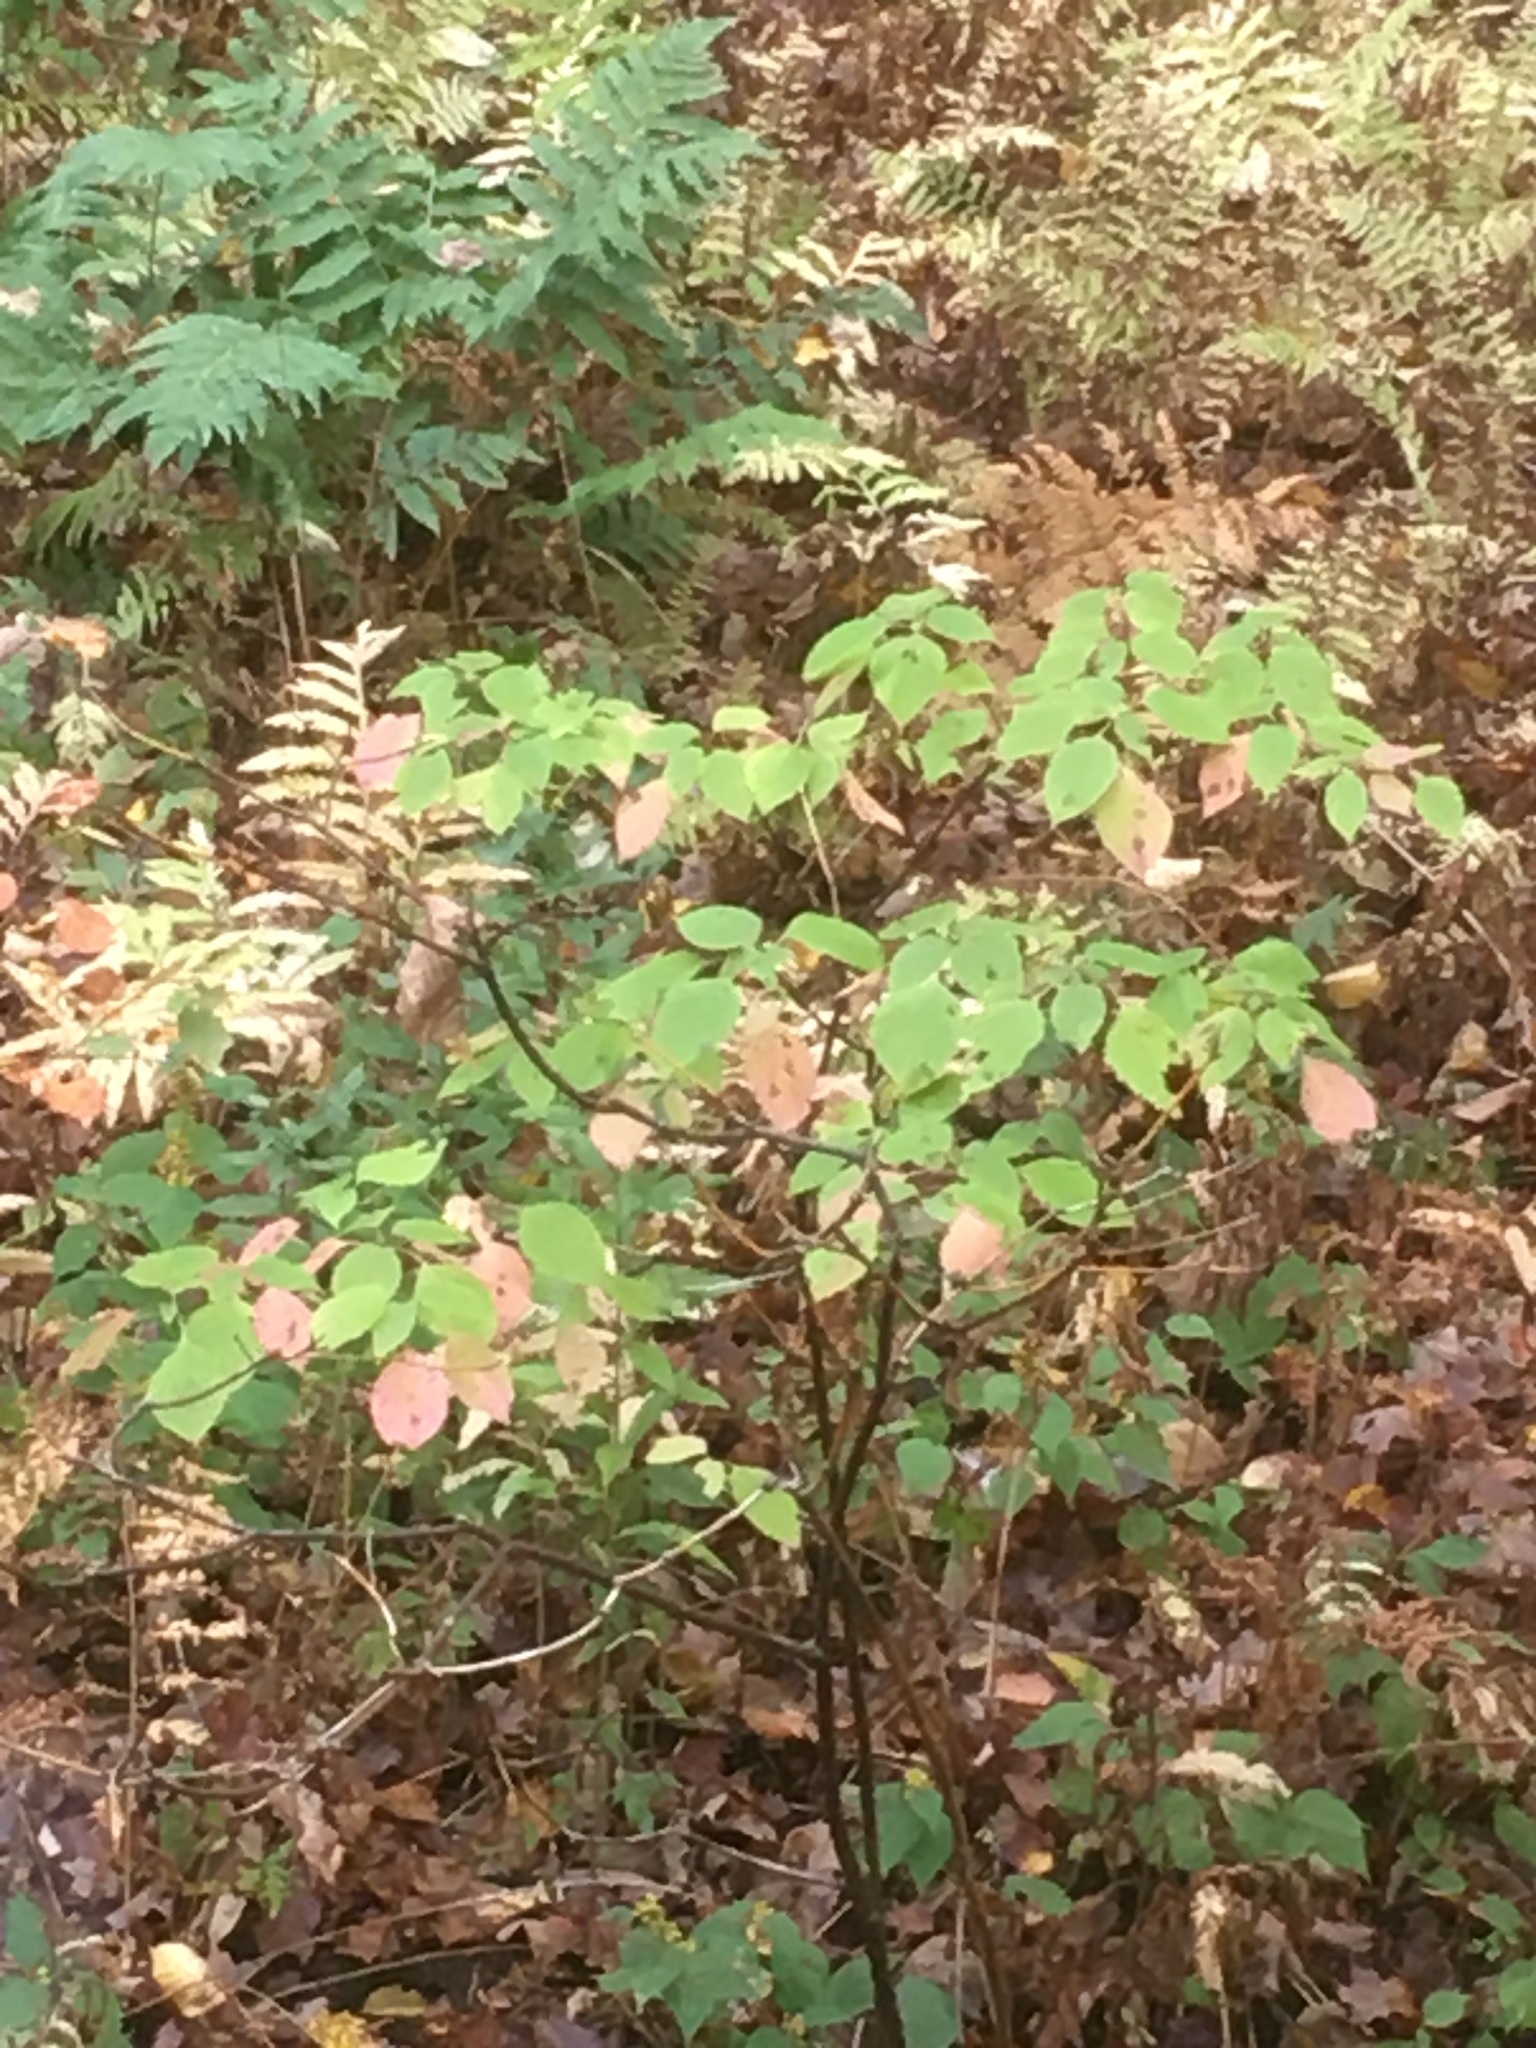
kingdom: Plantae
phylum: Tracheophyta
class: Magnoliopsida
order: Cornales
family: Cornaceae
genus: Cornus
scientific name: Cornus alternifolia
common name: Pagoda dogwood
